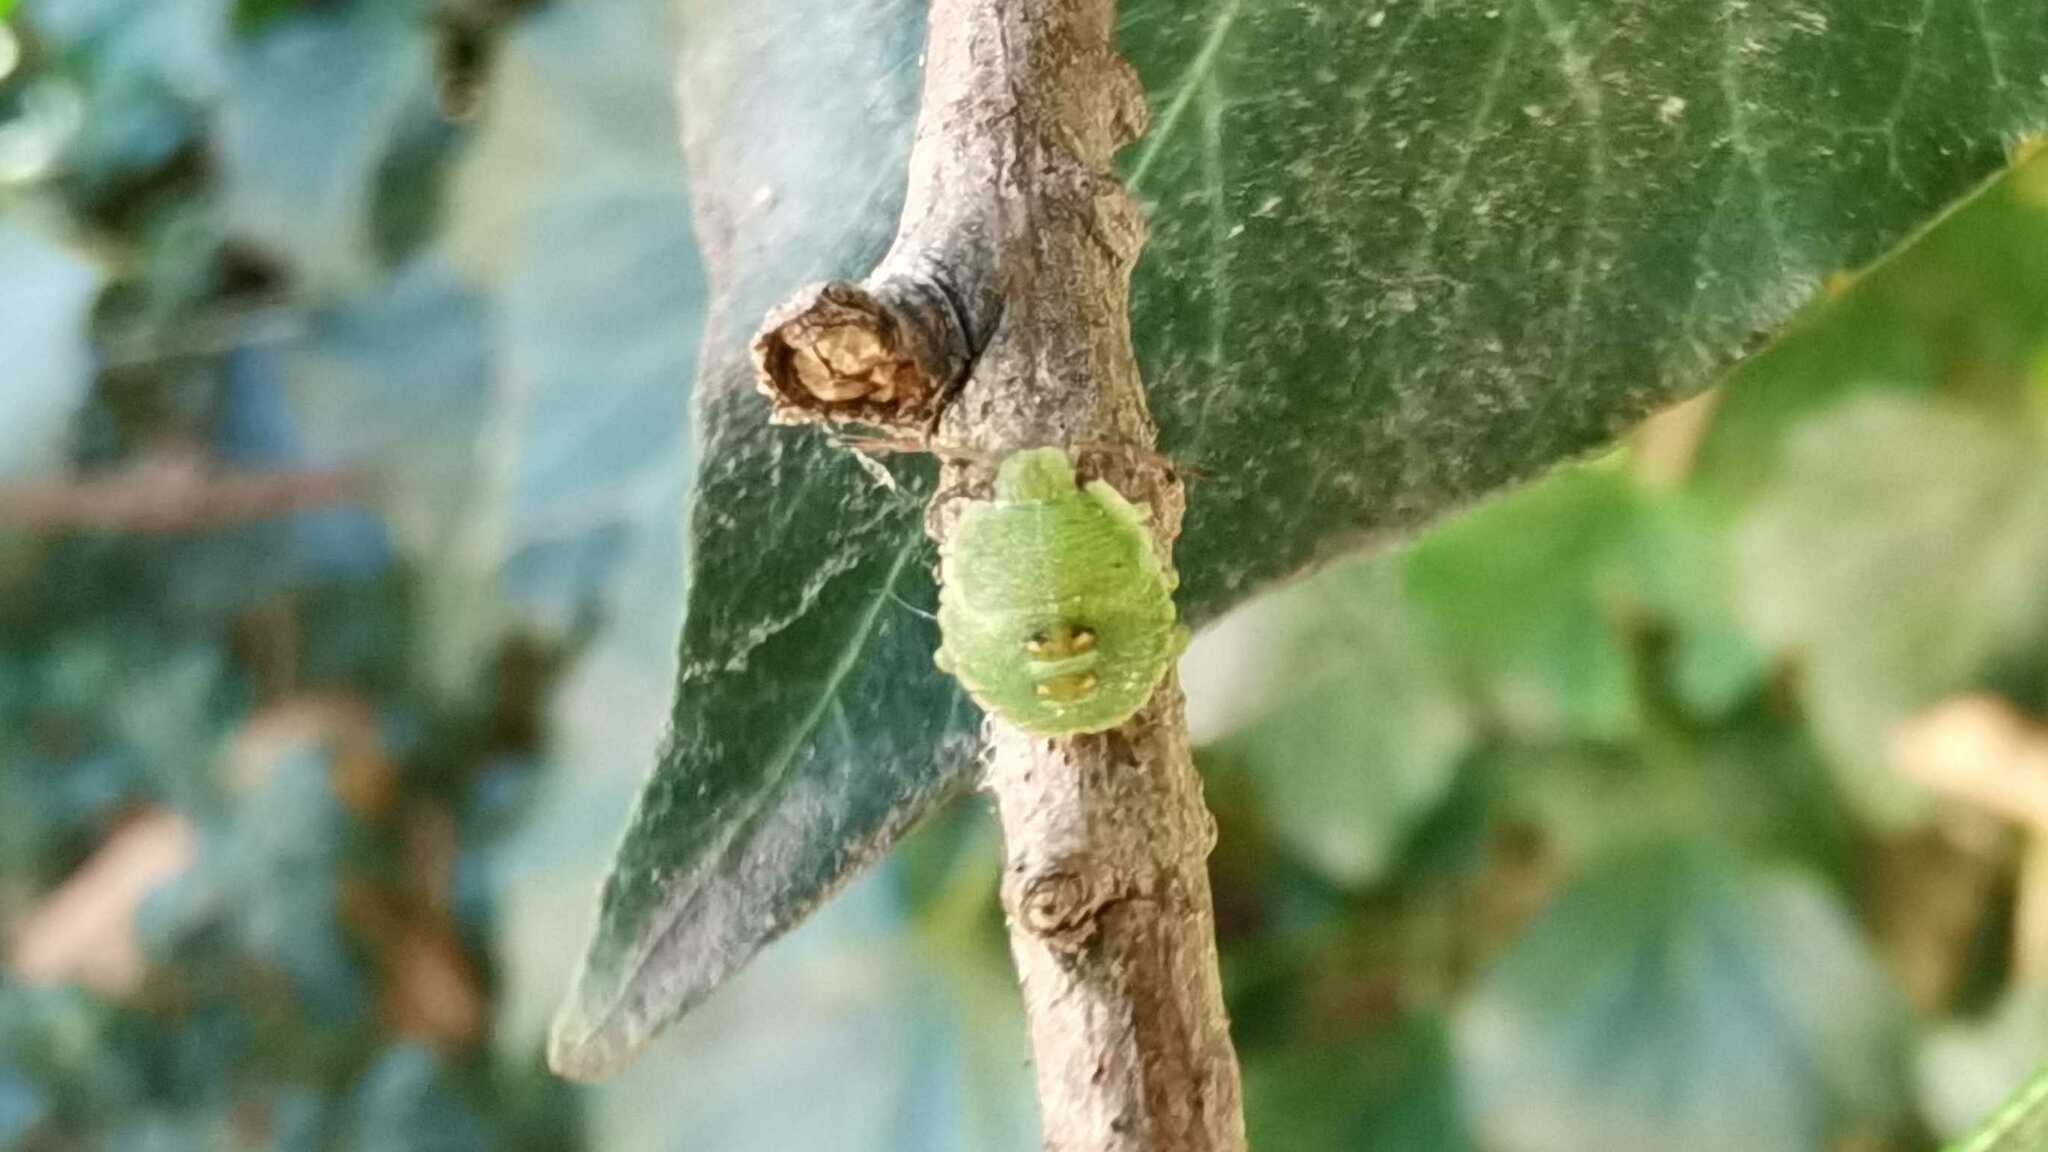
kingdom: Animalia
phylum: Arthropoda
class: Insecta
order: Hemiptera
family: Pentatomidae
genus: Palomena
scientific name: Palomena prasina
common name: Green shieldbug
